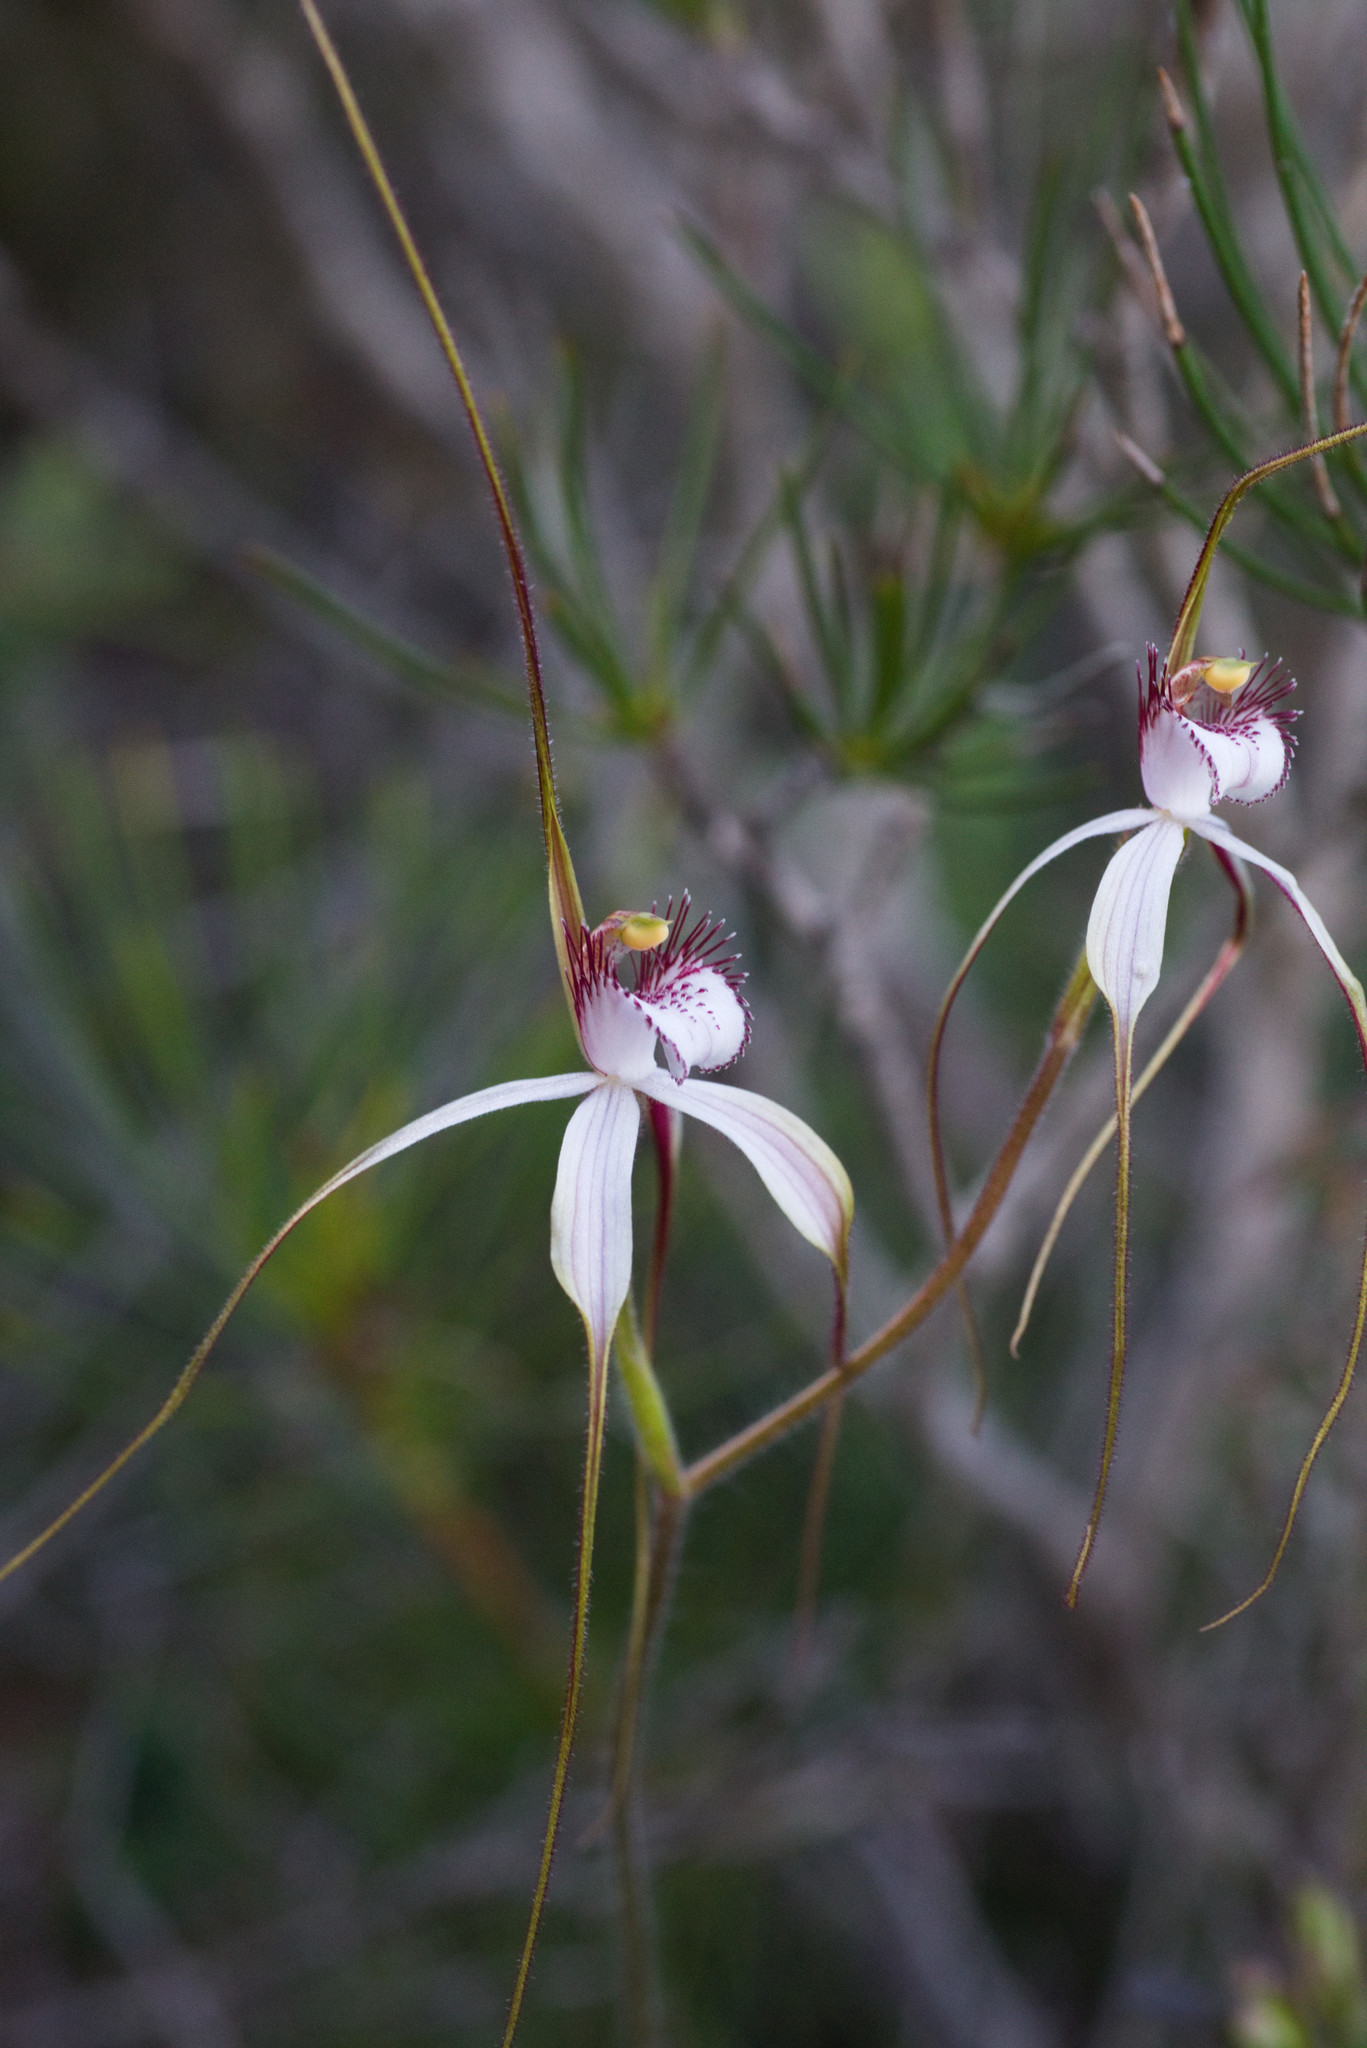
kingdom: Plantae
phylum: Tracheophyta
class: Liliopsida
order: Asparagales
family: Orchidaceae
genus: Caladenia
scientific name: Caladenia longicauda
